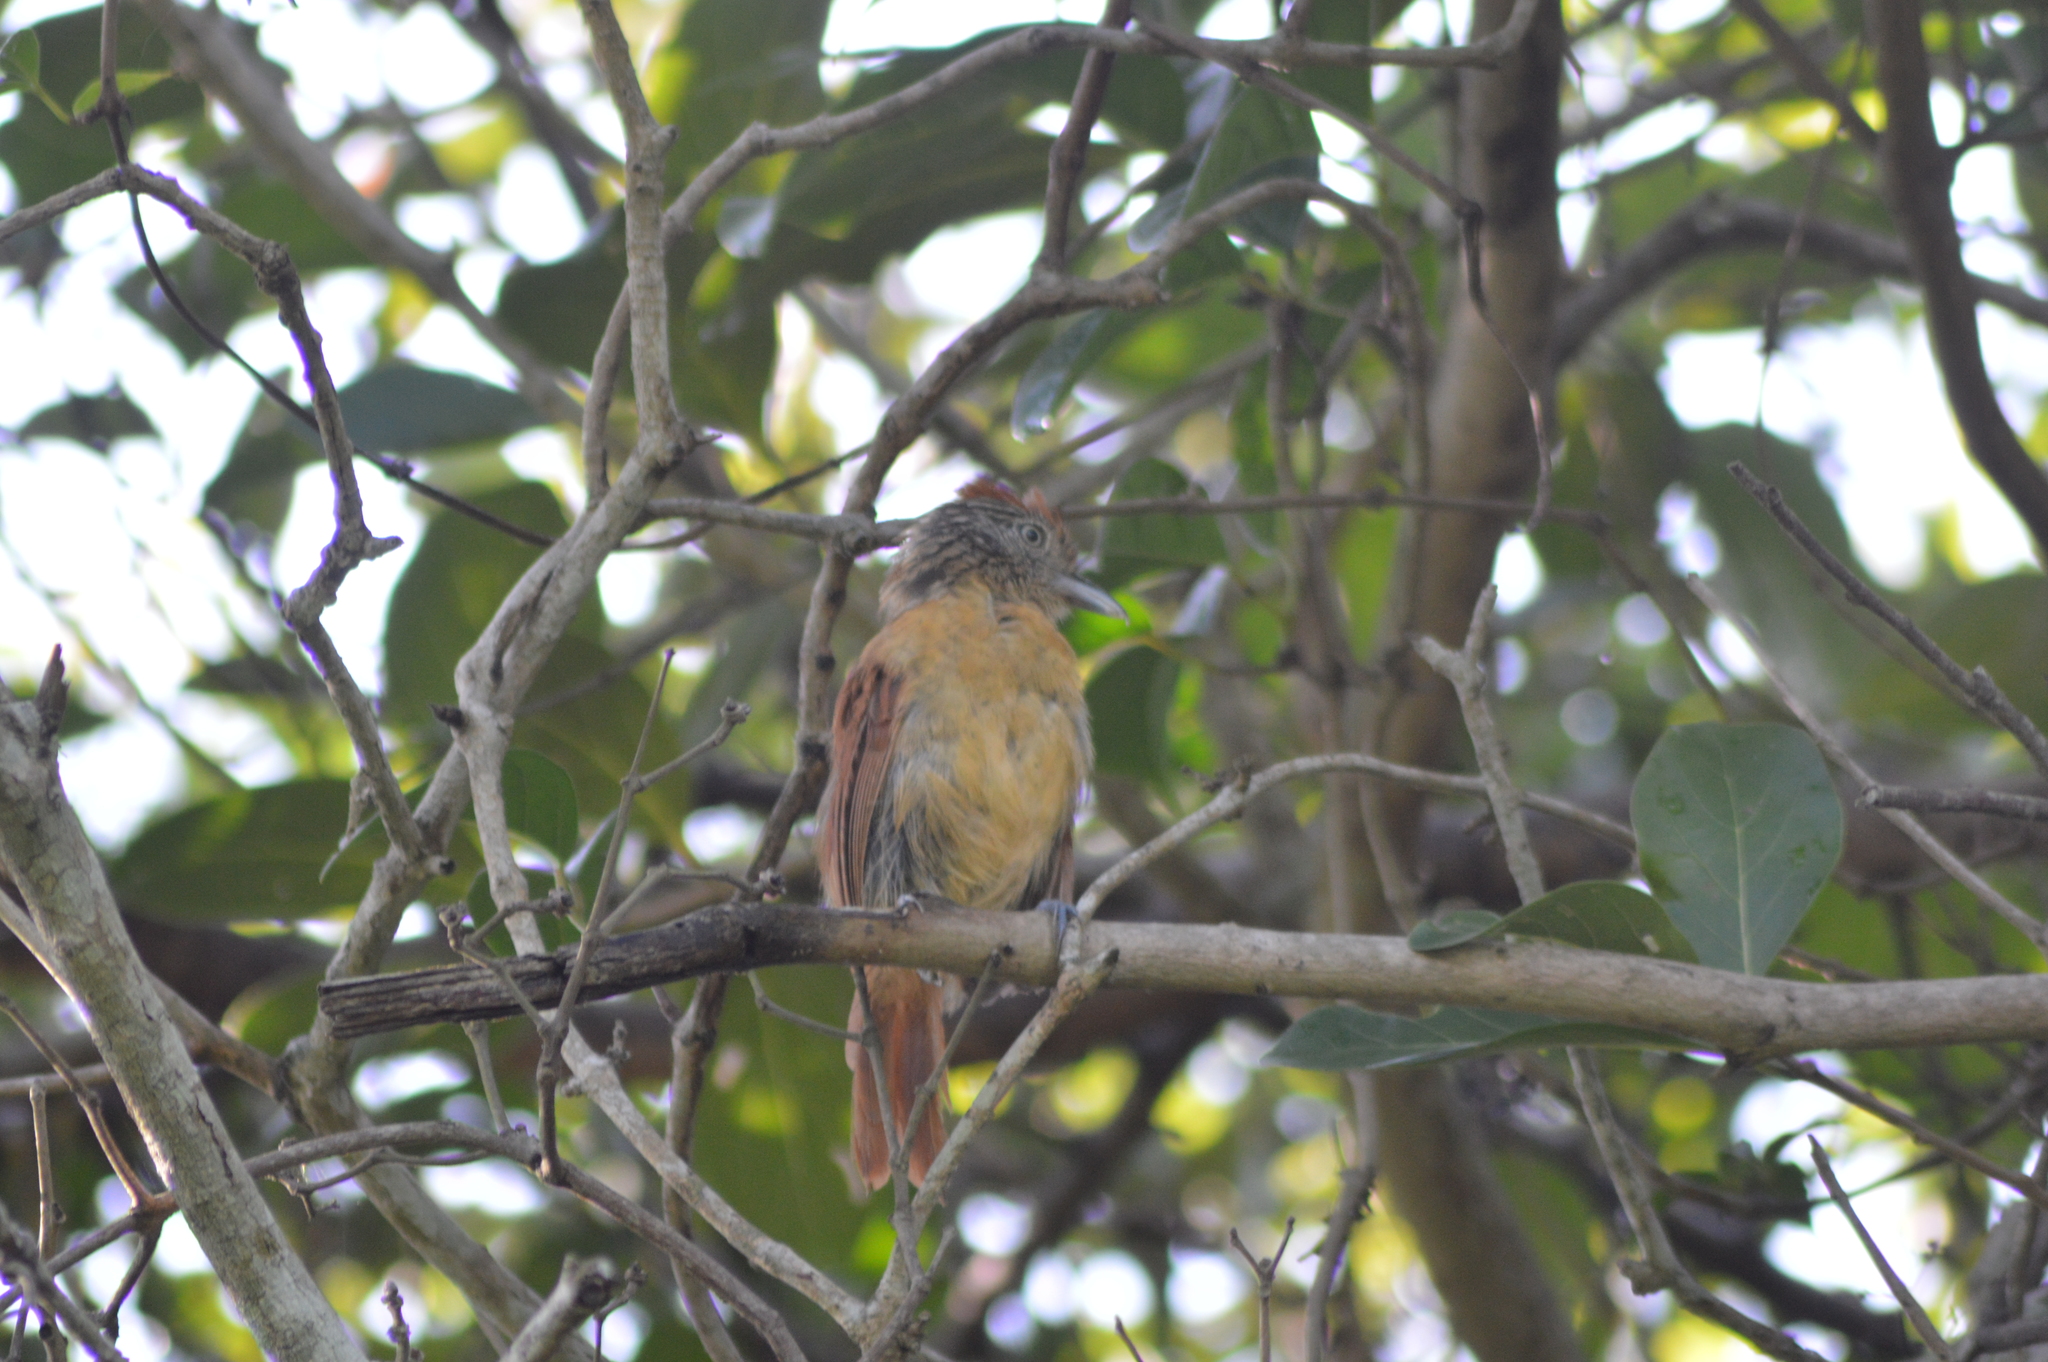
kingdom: Animalia
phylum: Chordata
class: Aves
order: Passeriformes
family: Thamnophilidae
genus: Thamnophilus
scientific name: Thamnophilus doliatus
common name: Barred antshrike
